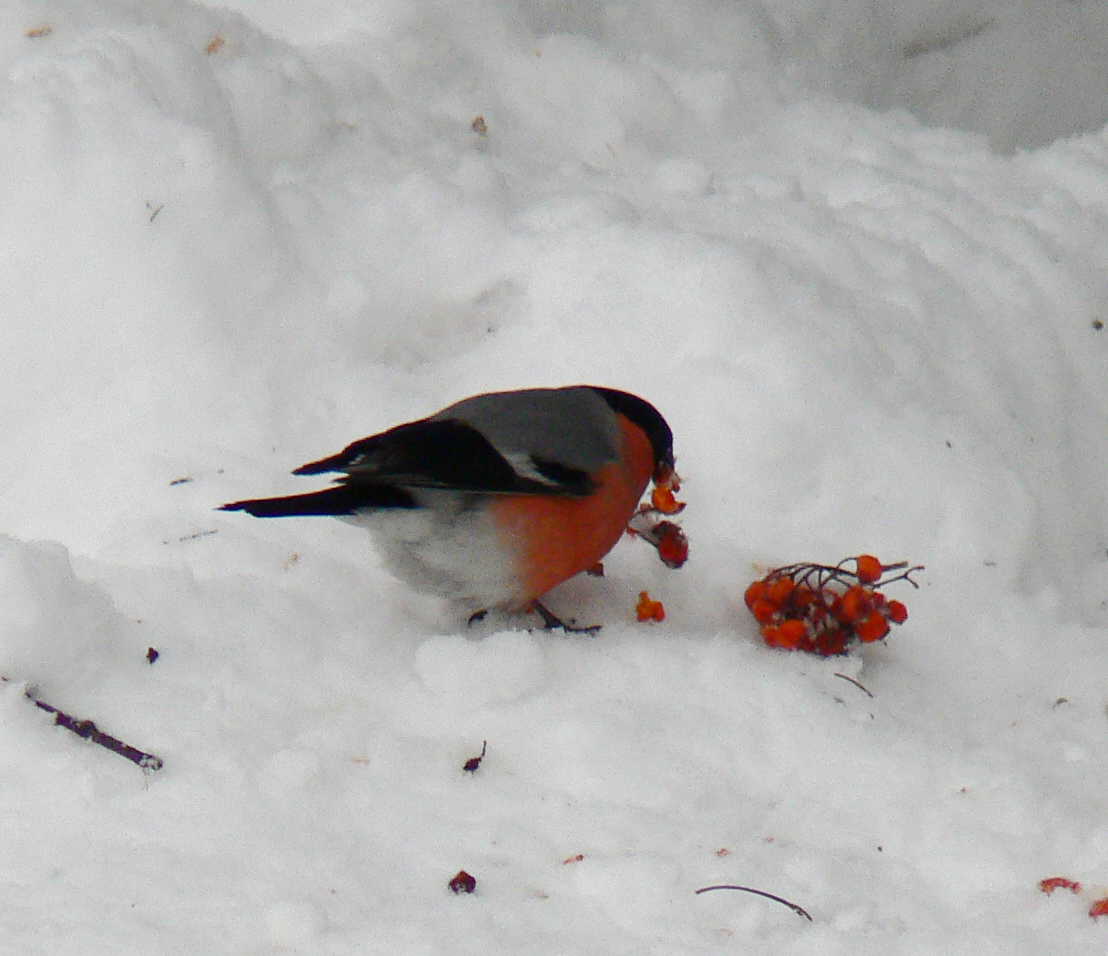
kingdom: Animalia
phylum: Chordata
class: Aves
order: Passeriformes
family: Fringillidae
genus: Pyrrhula
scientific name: Pyrrhula pyrrhula
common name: Eurasian bullfinch
